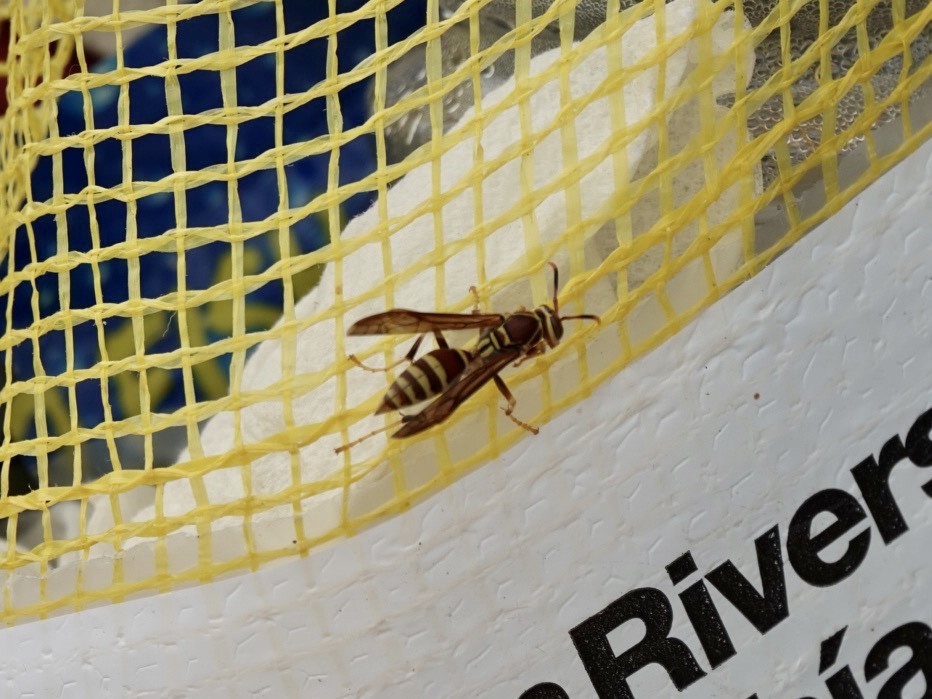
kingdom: Animalia
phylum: Arthropoda
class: Insecta
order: Hymenoptera
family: Eumenidae
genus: Polistes
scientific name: Polistes exclamans
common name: Paper wasp
